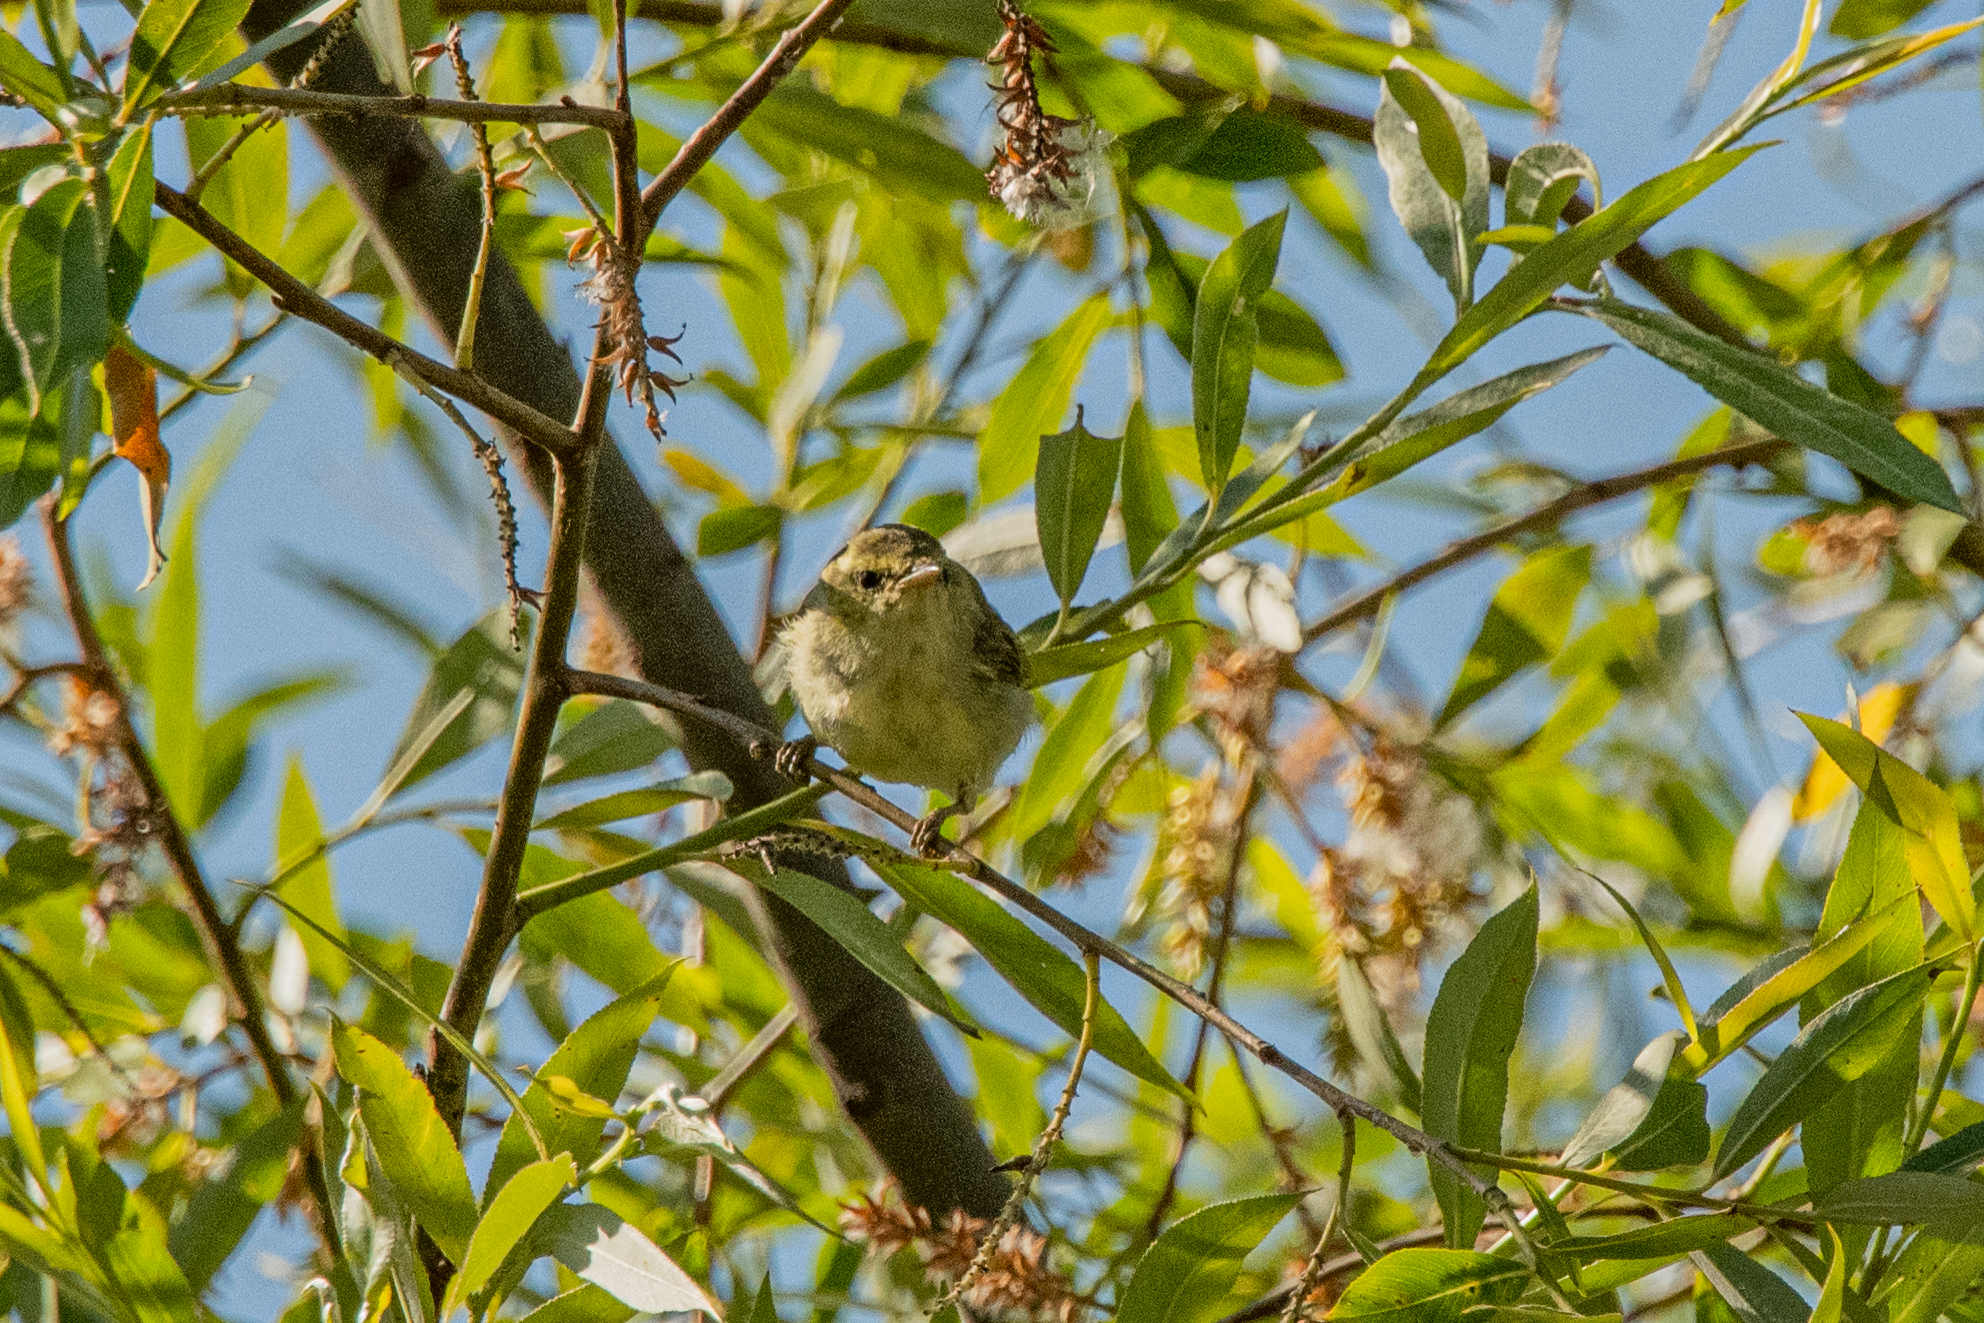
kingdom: Animalia
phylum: Chordata
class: Aves
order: Passeriformes
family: Phylloscopidae
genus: Phylloscopus
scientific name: Phylloscopus nitidus
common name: Green warbler
